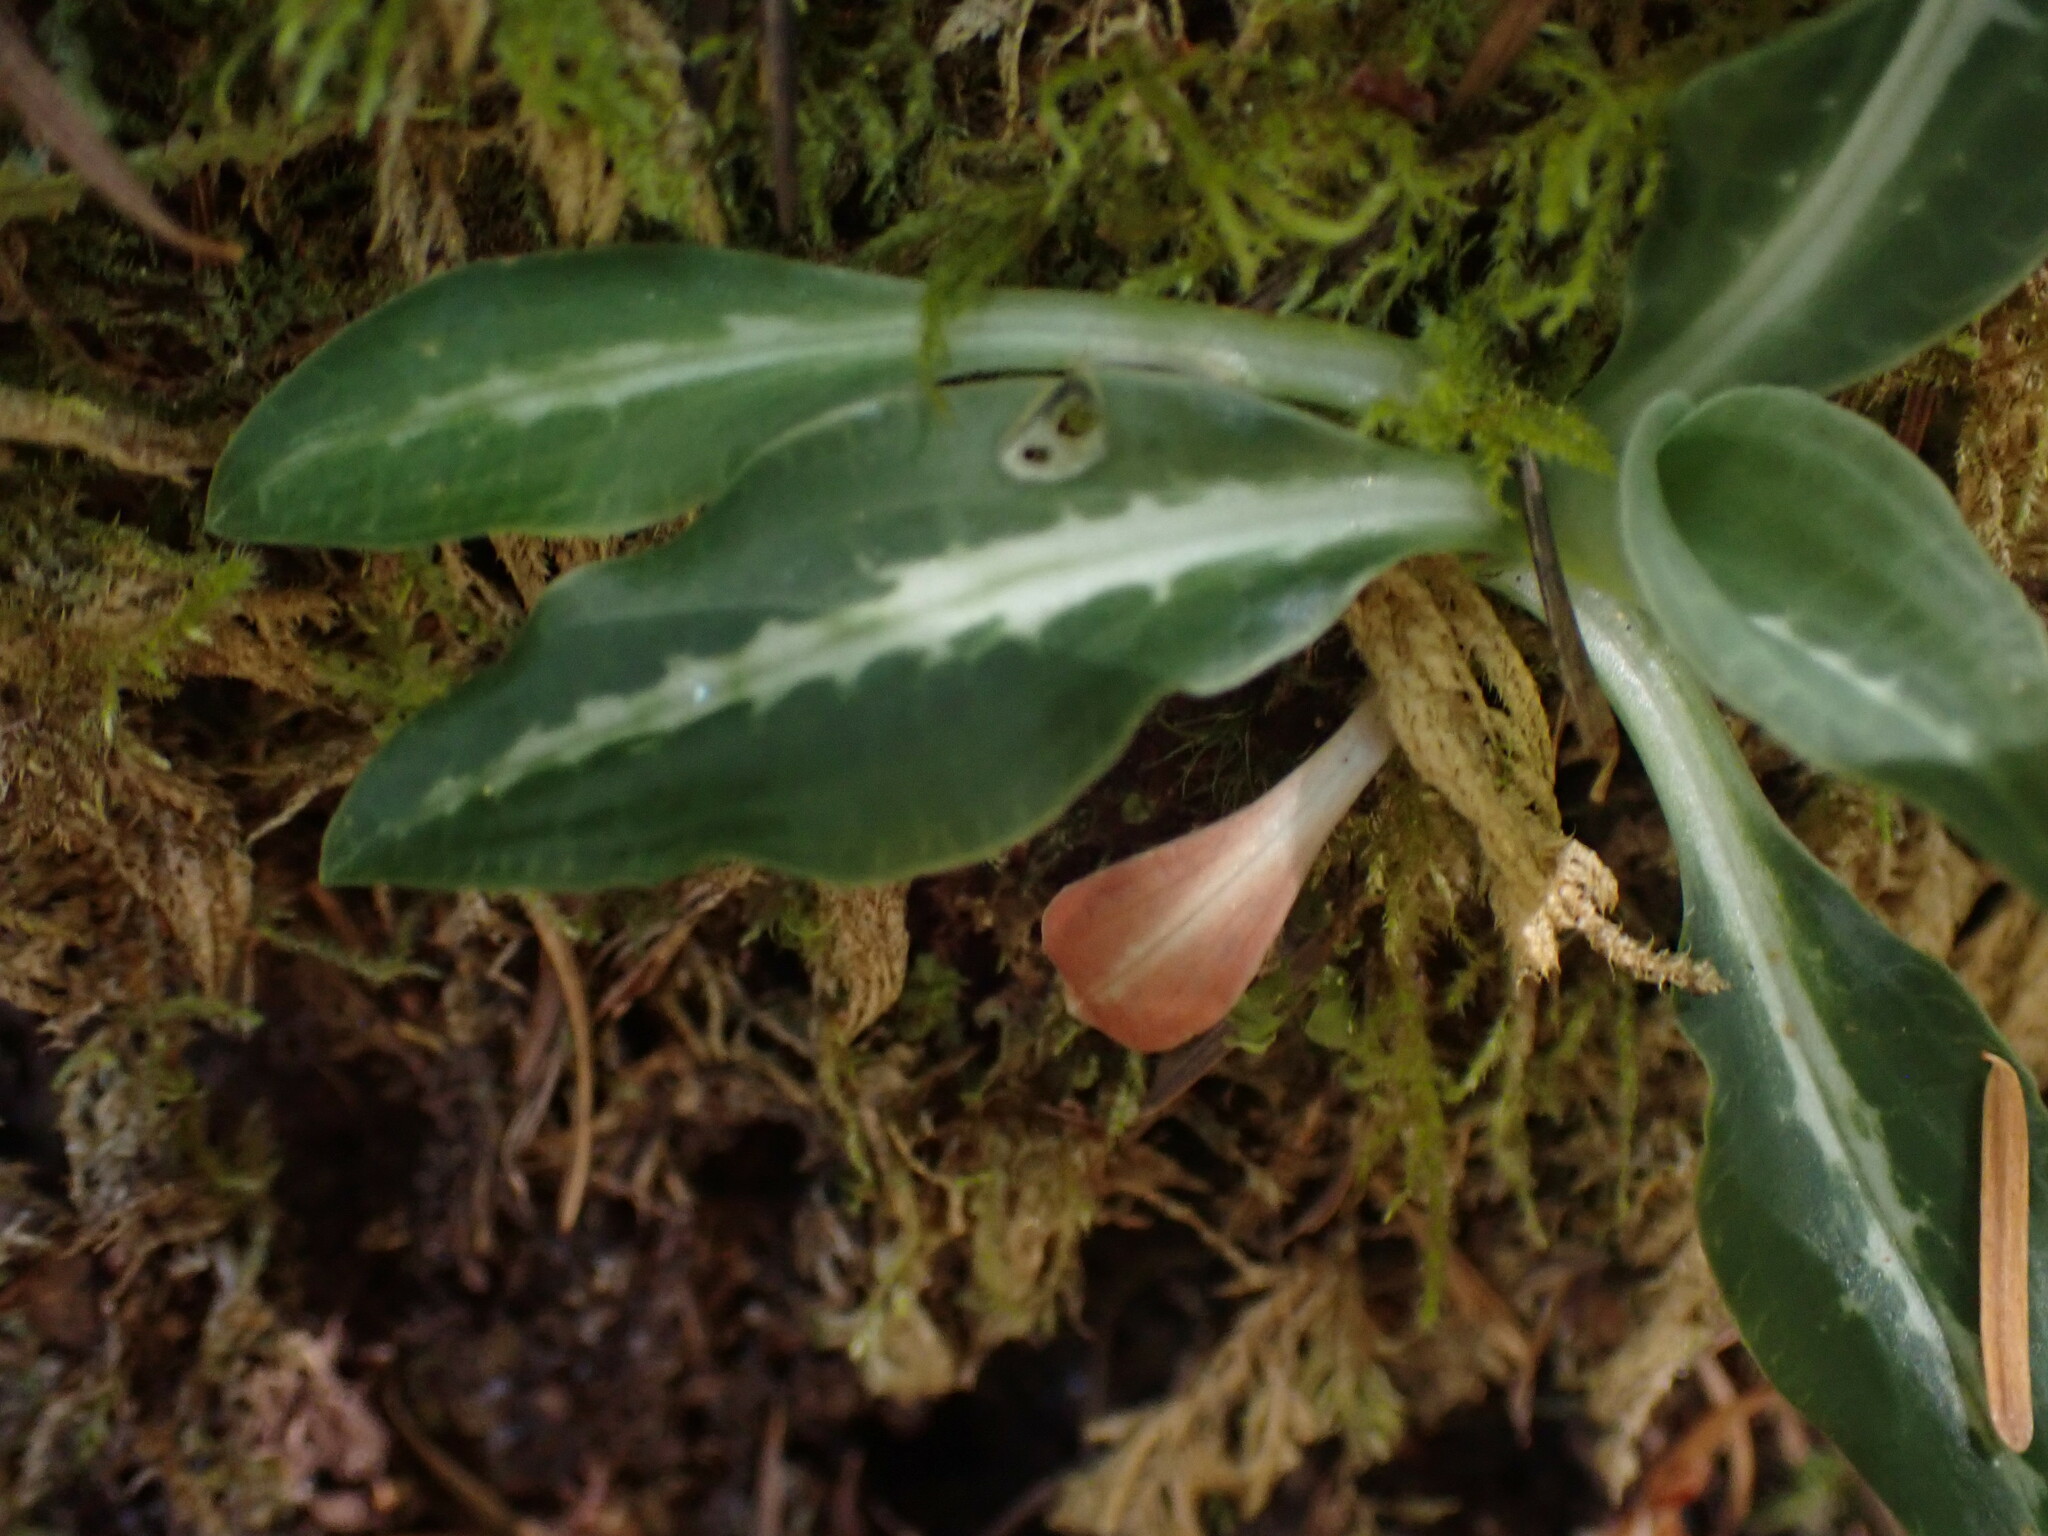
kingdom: Plantae
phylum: Tracheophyta
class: Liliopsida
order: Asparagales
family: Orchidaceae
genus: Goodyera
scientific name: Goodyera oblongifolia
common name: Giant rattlesnake-plantain
